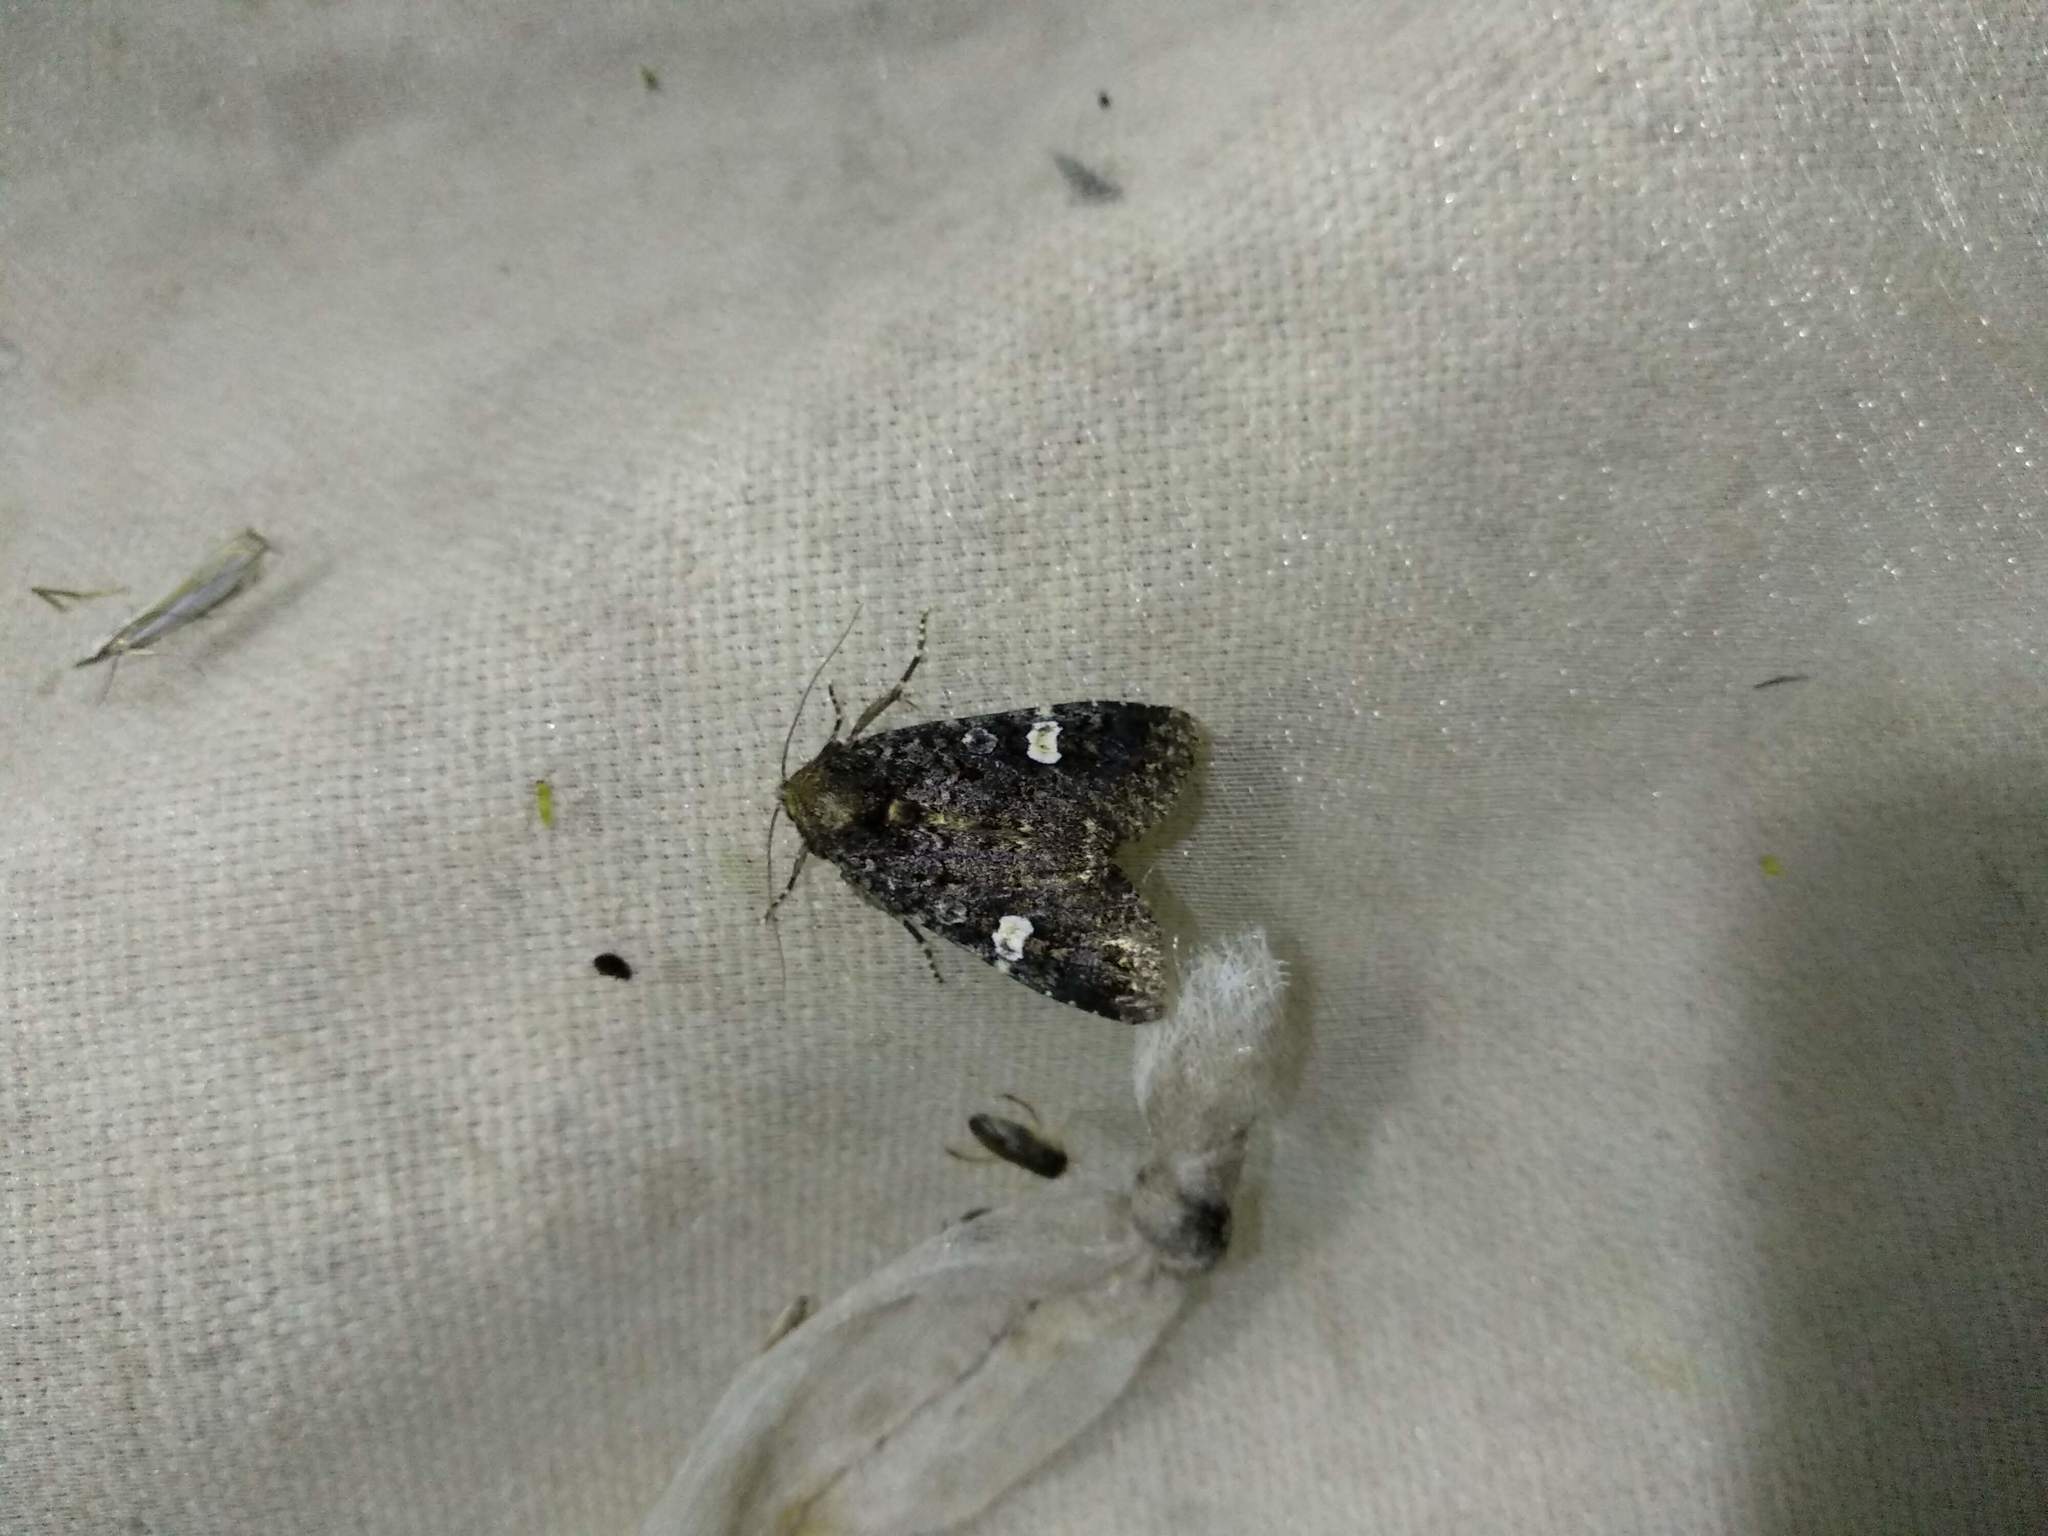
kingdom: Animalia
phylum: Arthropoda
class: Insecta
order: Lepidoptera
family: Noctuidae
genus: Melanchra
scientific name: Melanchra persicariae
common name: Dot moth
